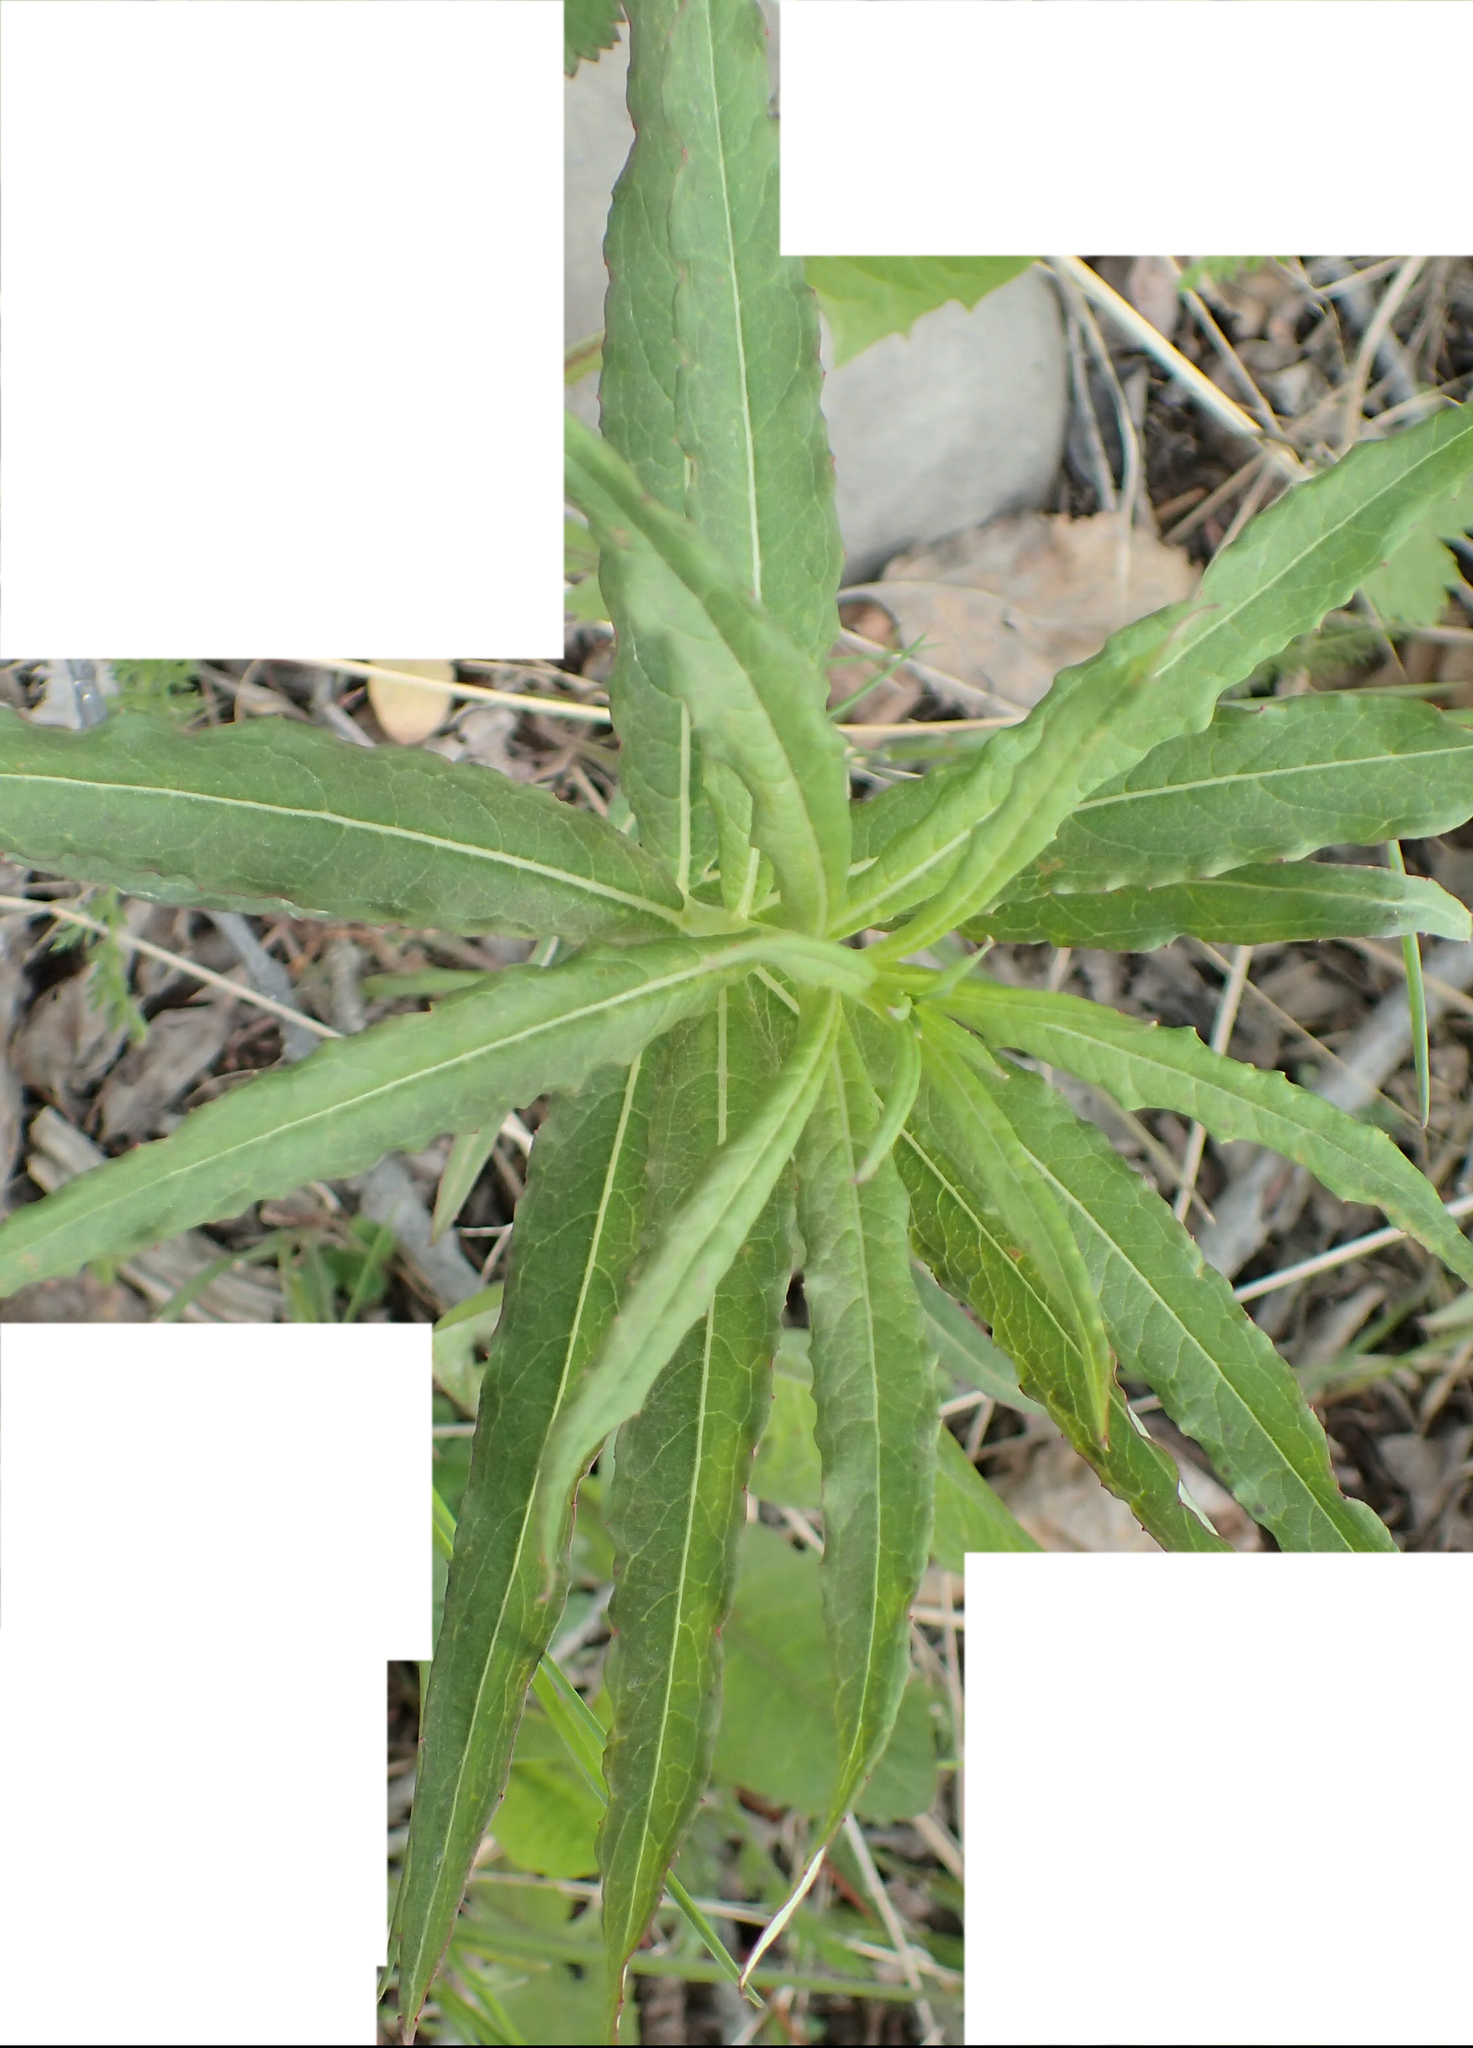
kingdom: Plantae
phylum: Tracheophyta
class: Magnoliopsida
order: Myrtales
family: Onagraceae
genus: Chamaenerion
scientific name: Chamaenerion angustifolium
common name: Fireweed
